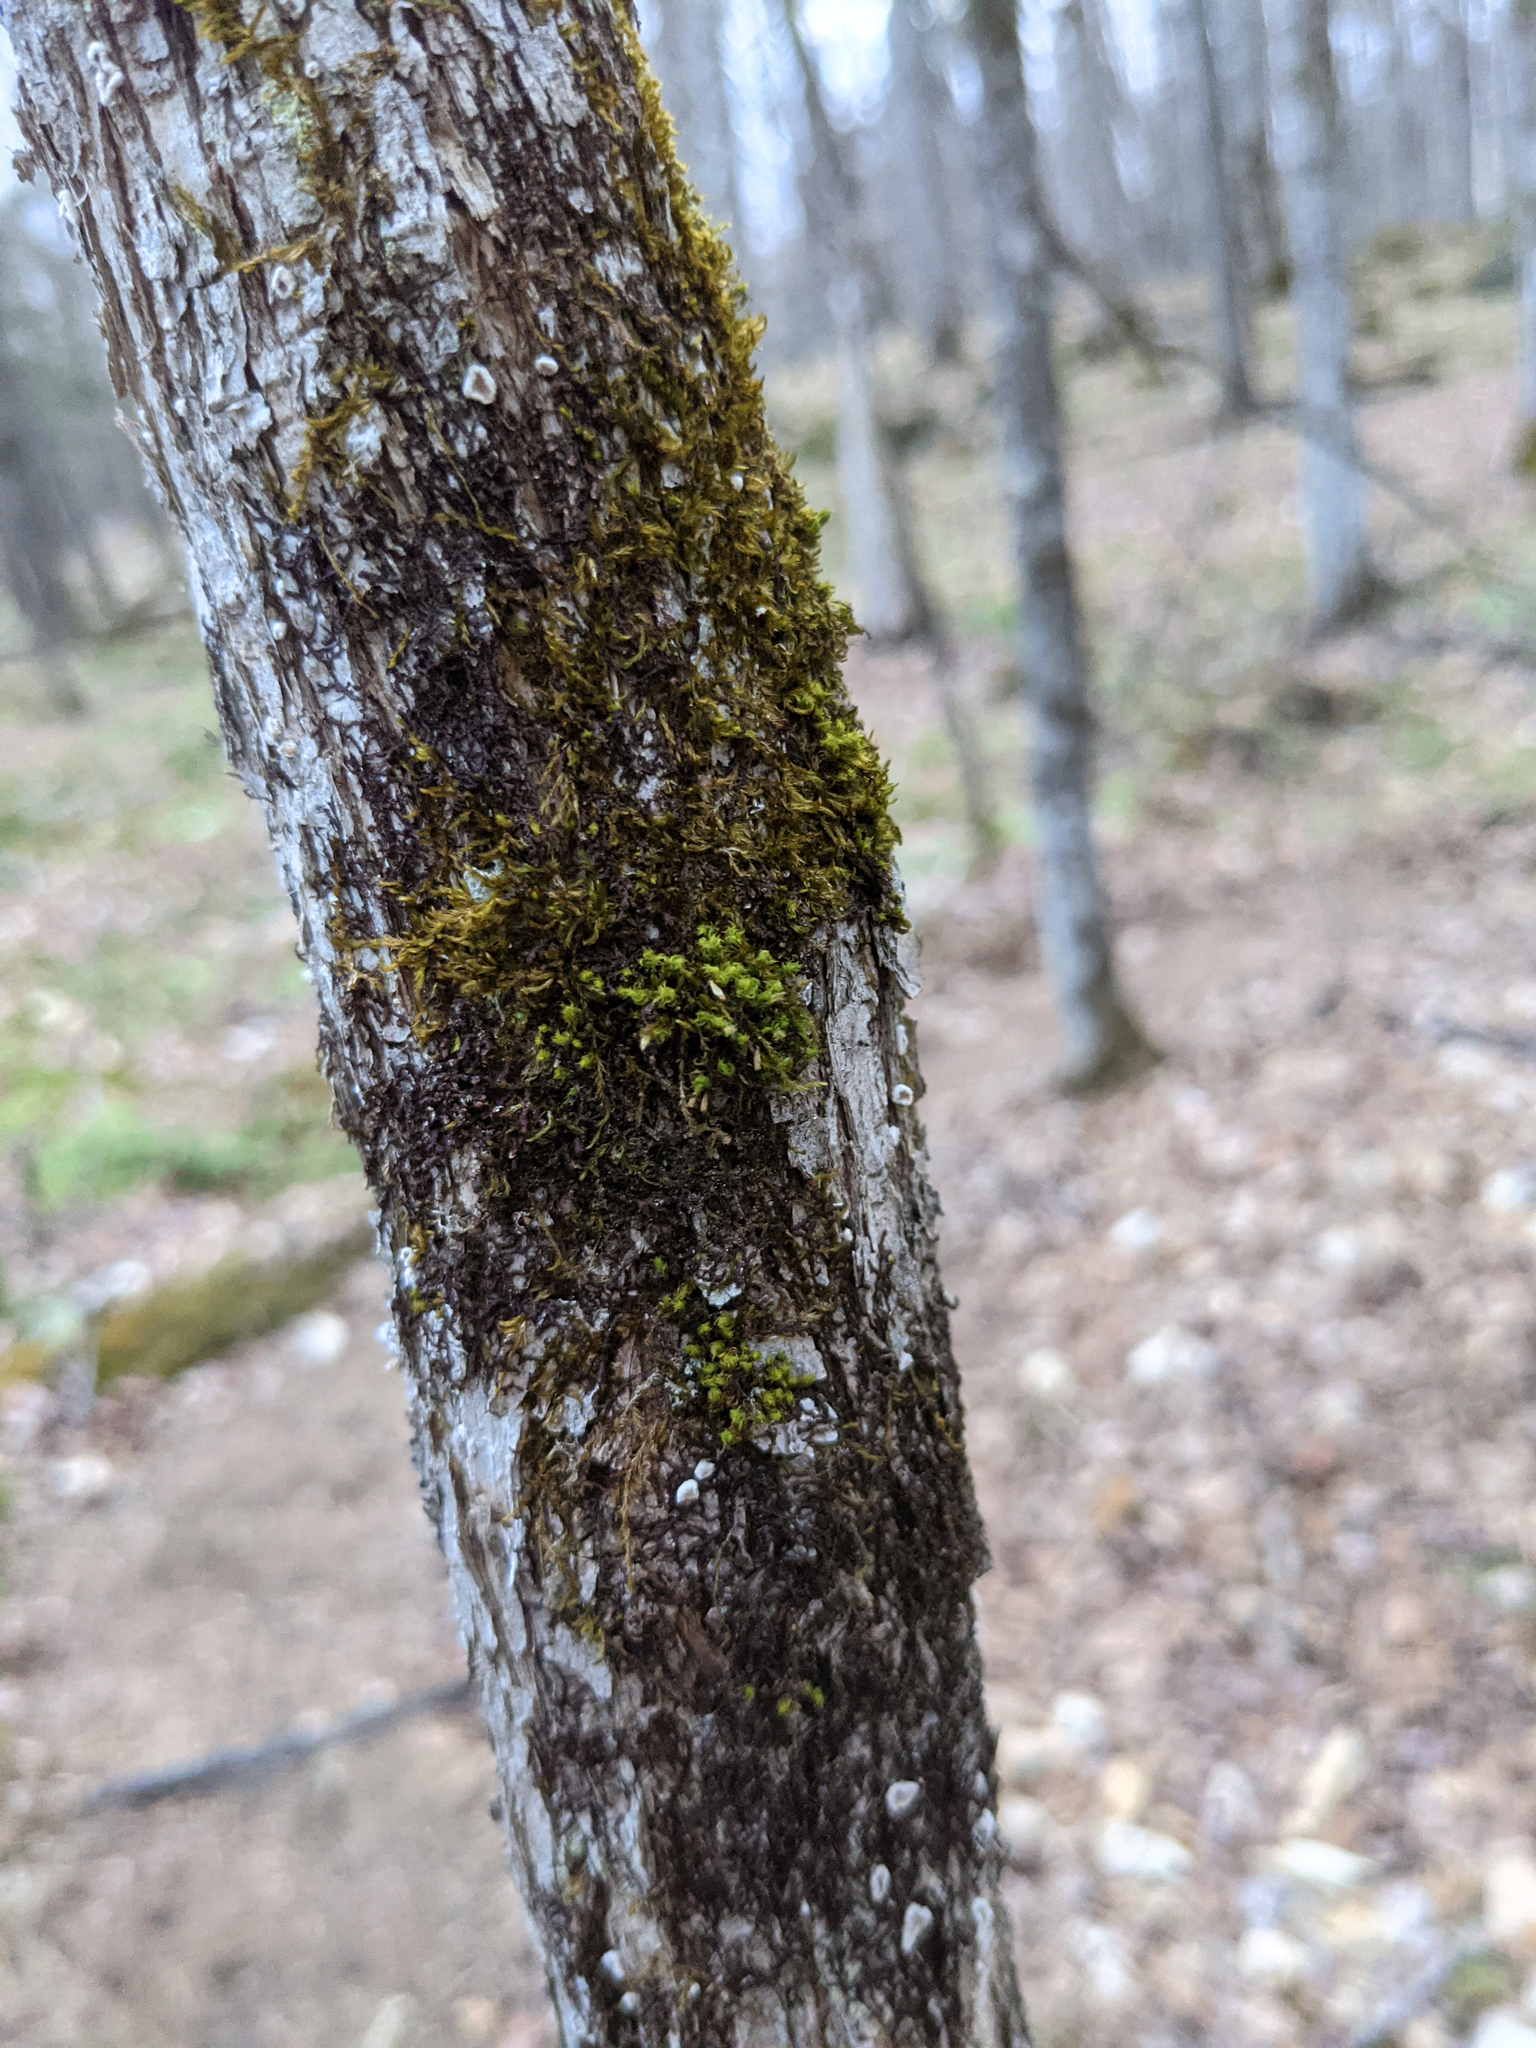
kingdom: Plantae
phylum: Bryophyta
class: Bryopsida
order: Orthotrichales
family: Orthotrichaceae
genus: Ulota
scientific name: Ulota crispa
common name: Crisped pincushion moss
